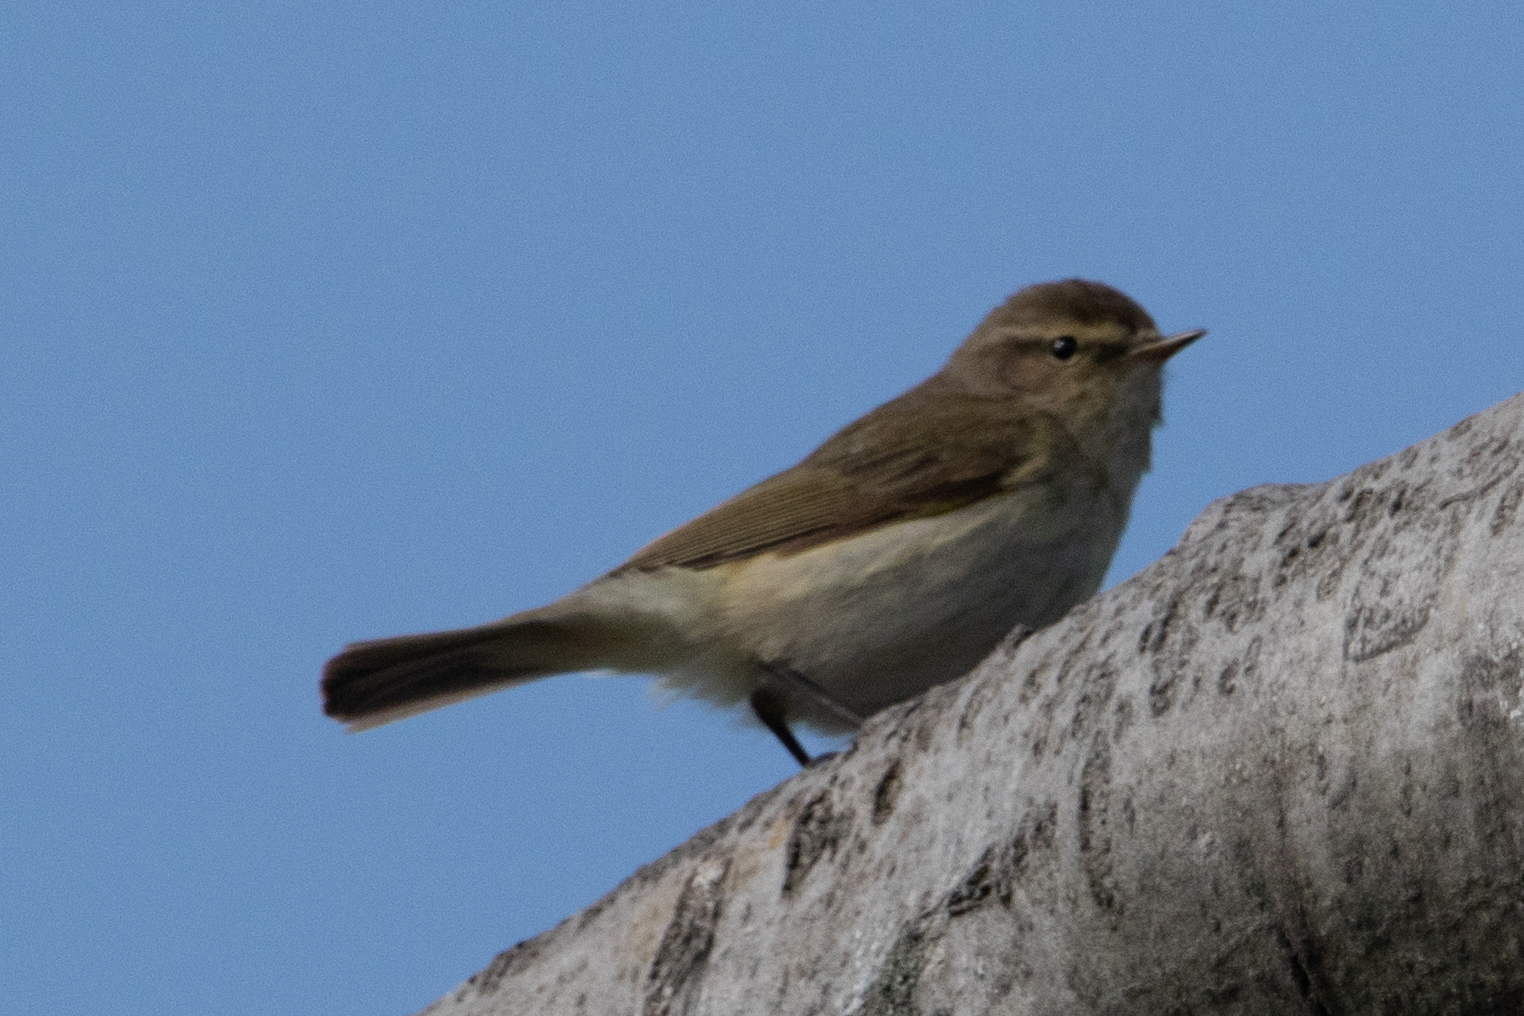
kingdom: Animalia
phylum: Chordata
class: Aves
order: Passeriformes
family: Phylloscopidae
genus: Phylloscopus
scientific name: Phylloscopus collybita
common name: Common chiffchaff
